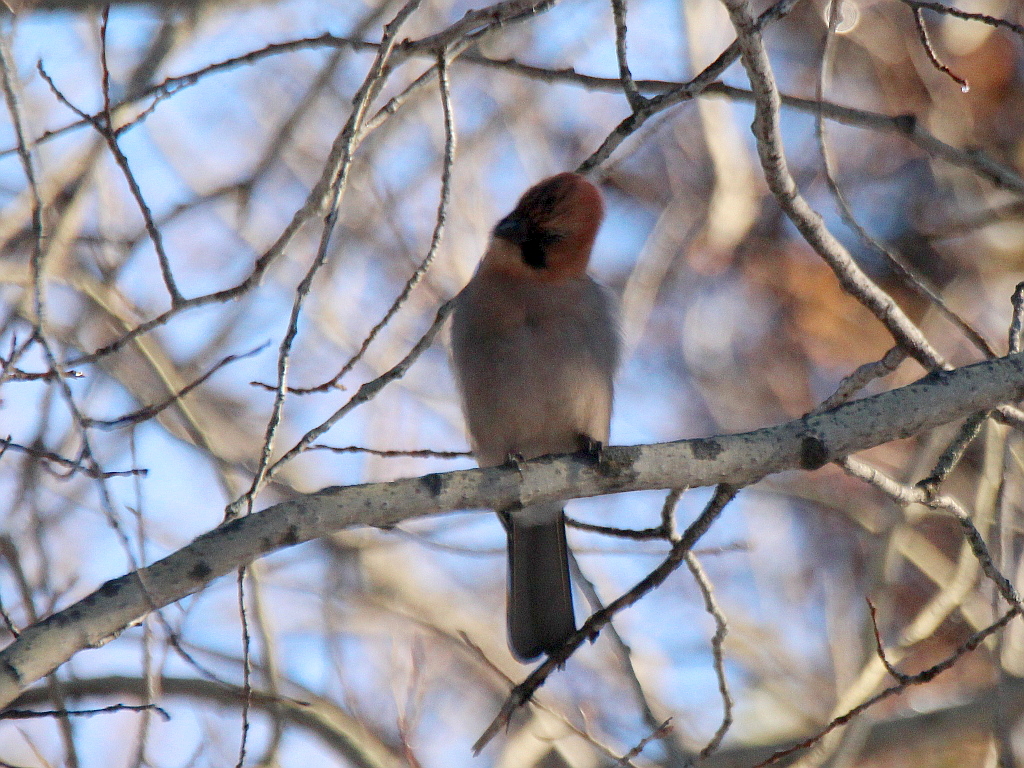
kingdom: Animalia
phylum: Chordata
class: Aves
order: Passeriformes
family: Corvidae
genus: Garrulus
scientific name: Garrulus glandarius
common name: Eurasian jay
